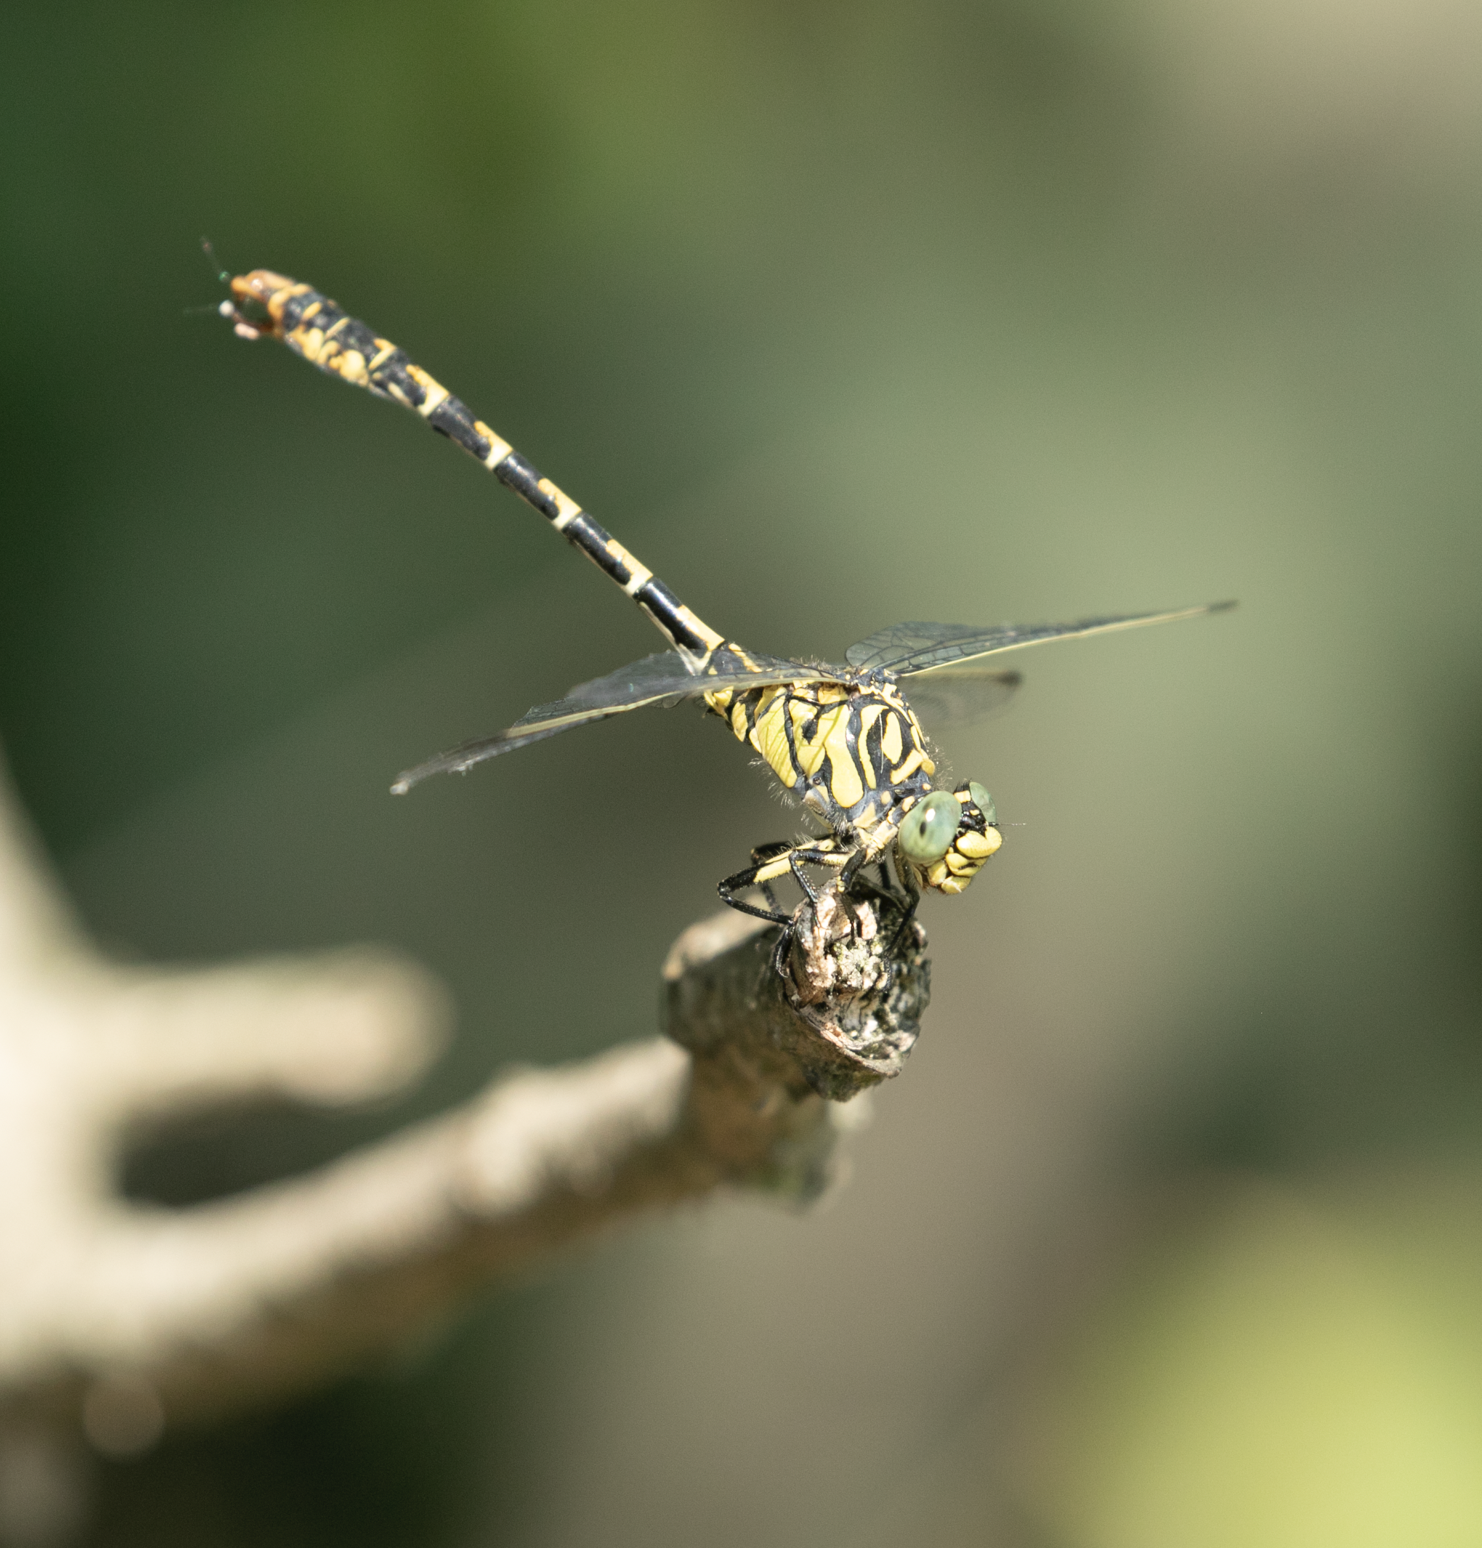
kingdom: Animalia
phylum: Arthropoda
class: Insecta
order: Odonata
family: Gomphidae
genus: Onychogomphus
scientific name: Onychogomphus forcipatus
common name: Small pincertail
